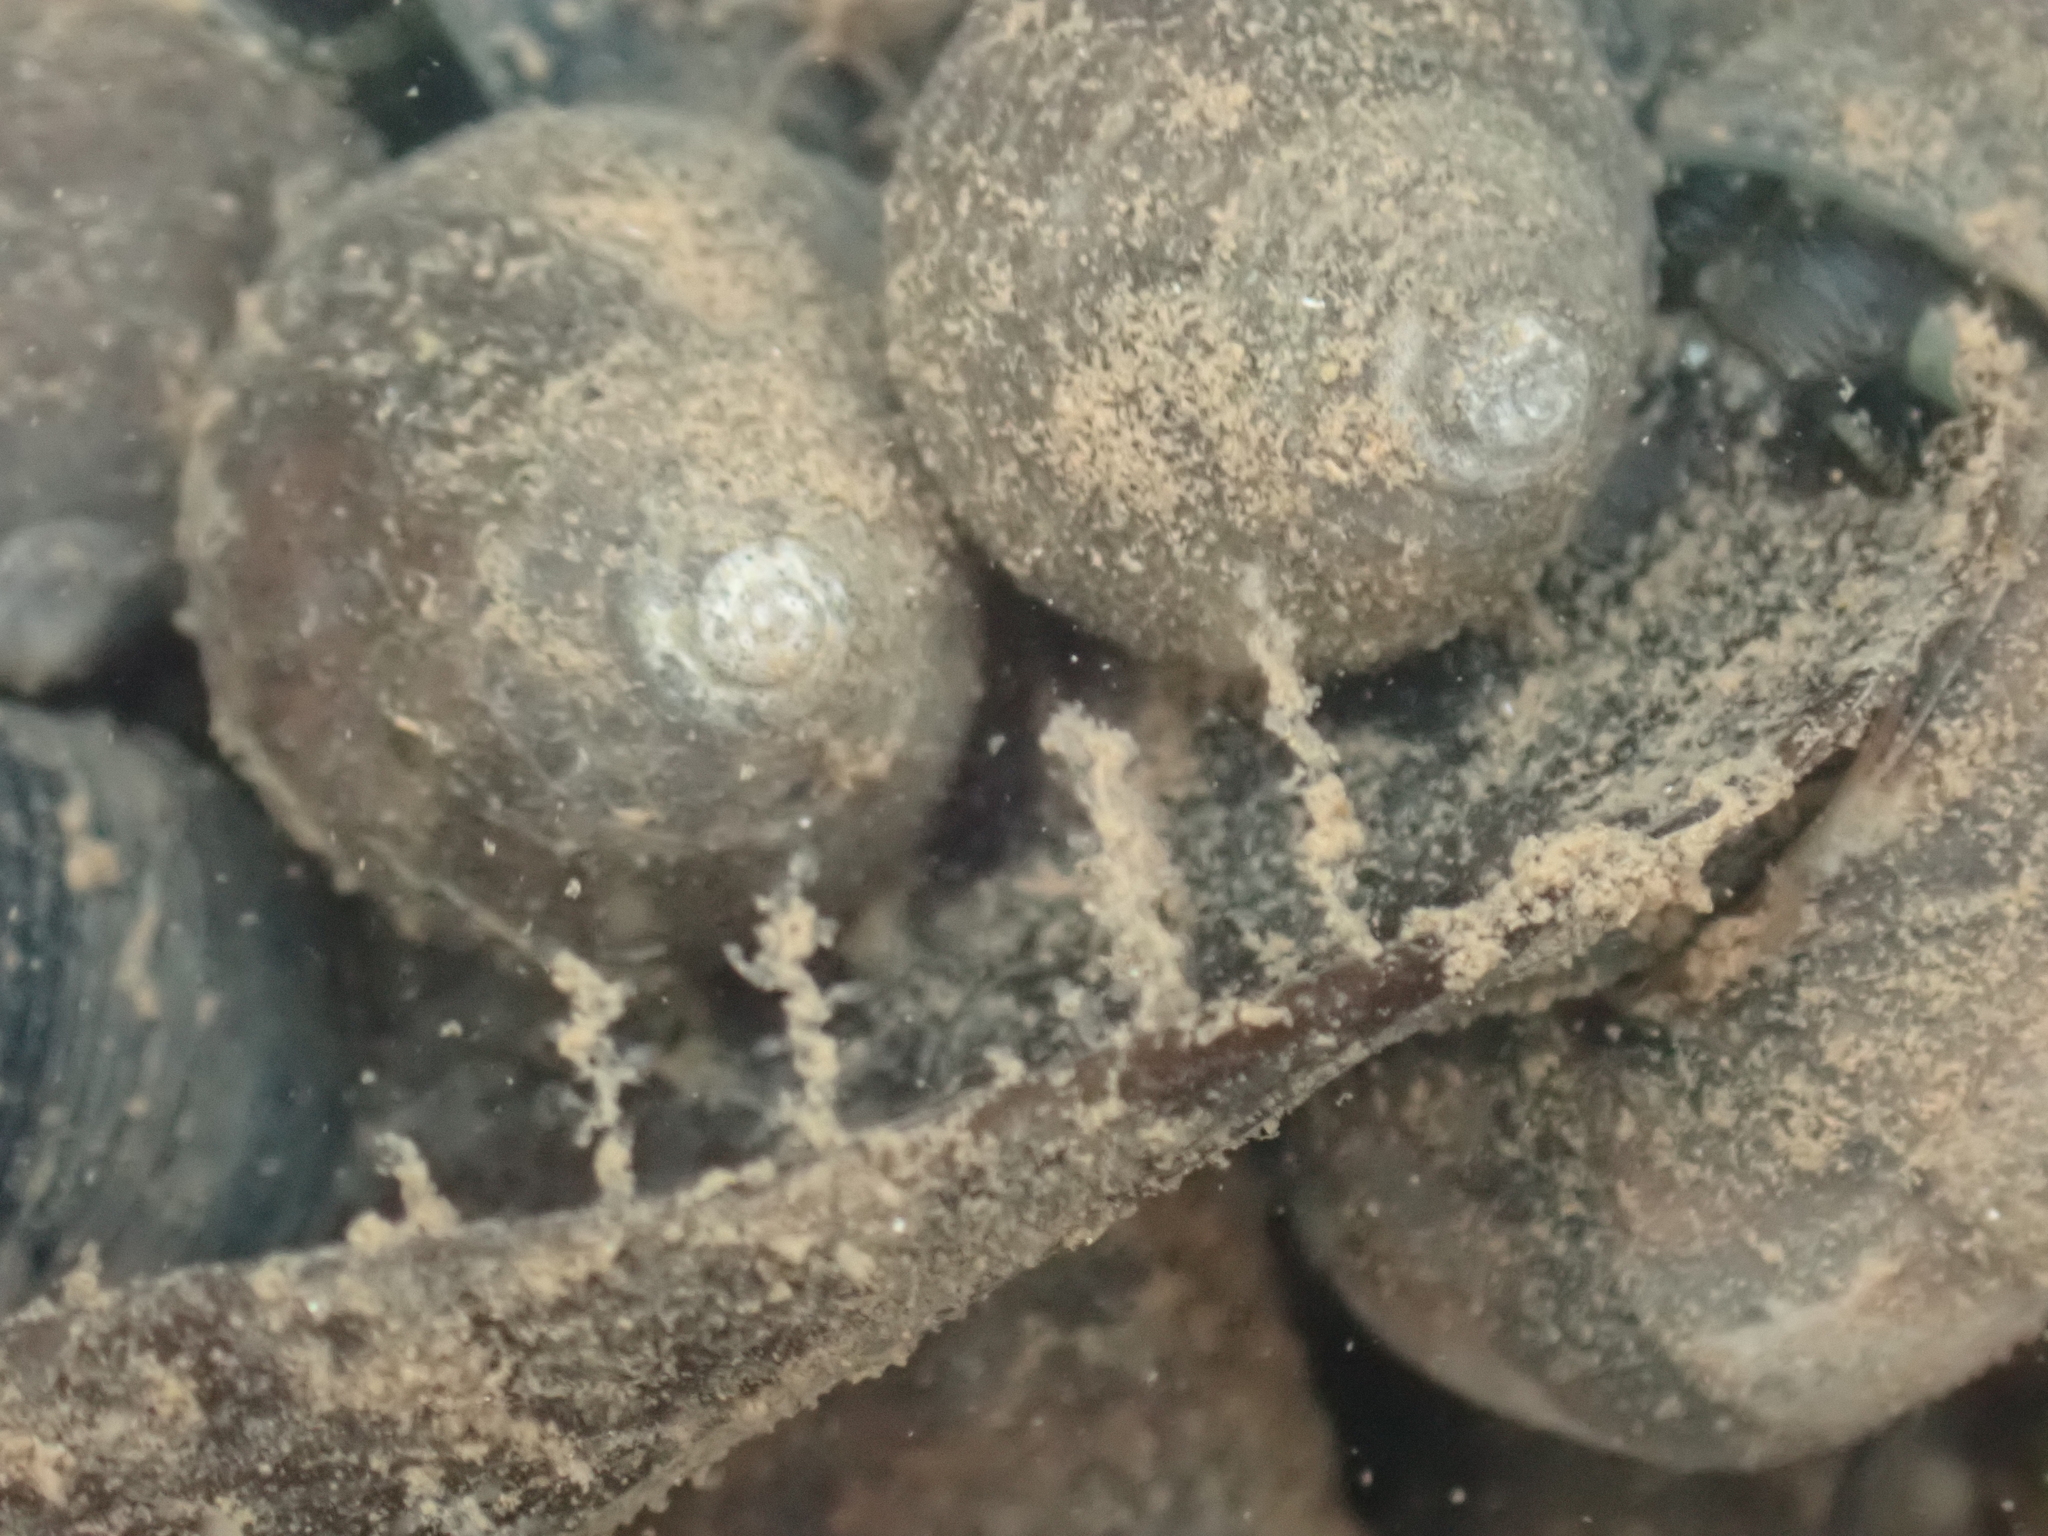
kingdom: Animalia
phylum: Cnidaria
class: Hydrozoa
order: Leptothecata
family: Campanulariidae
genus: Obelia
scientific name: Obelia geniculata
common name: Bell hydroid
